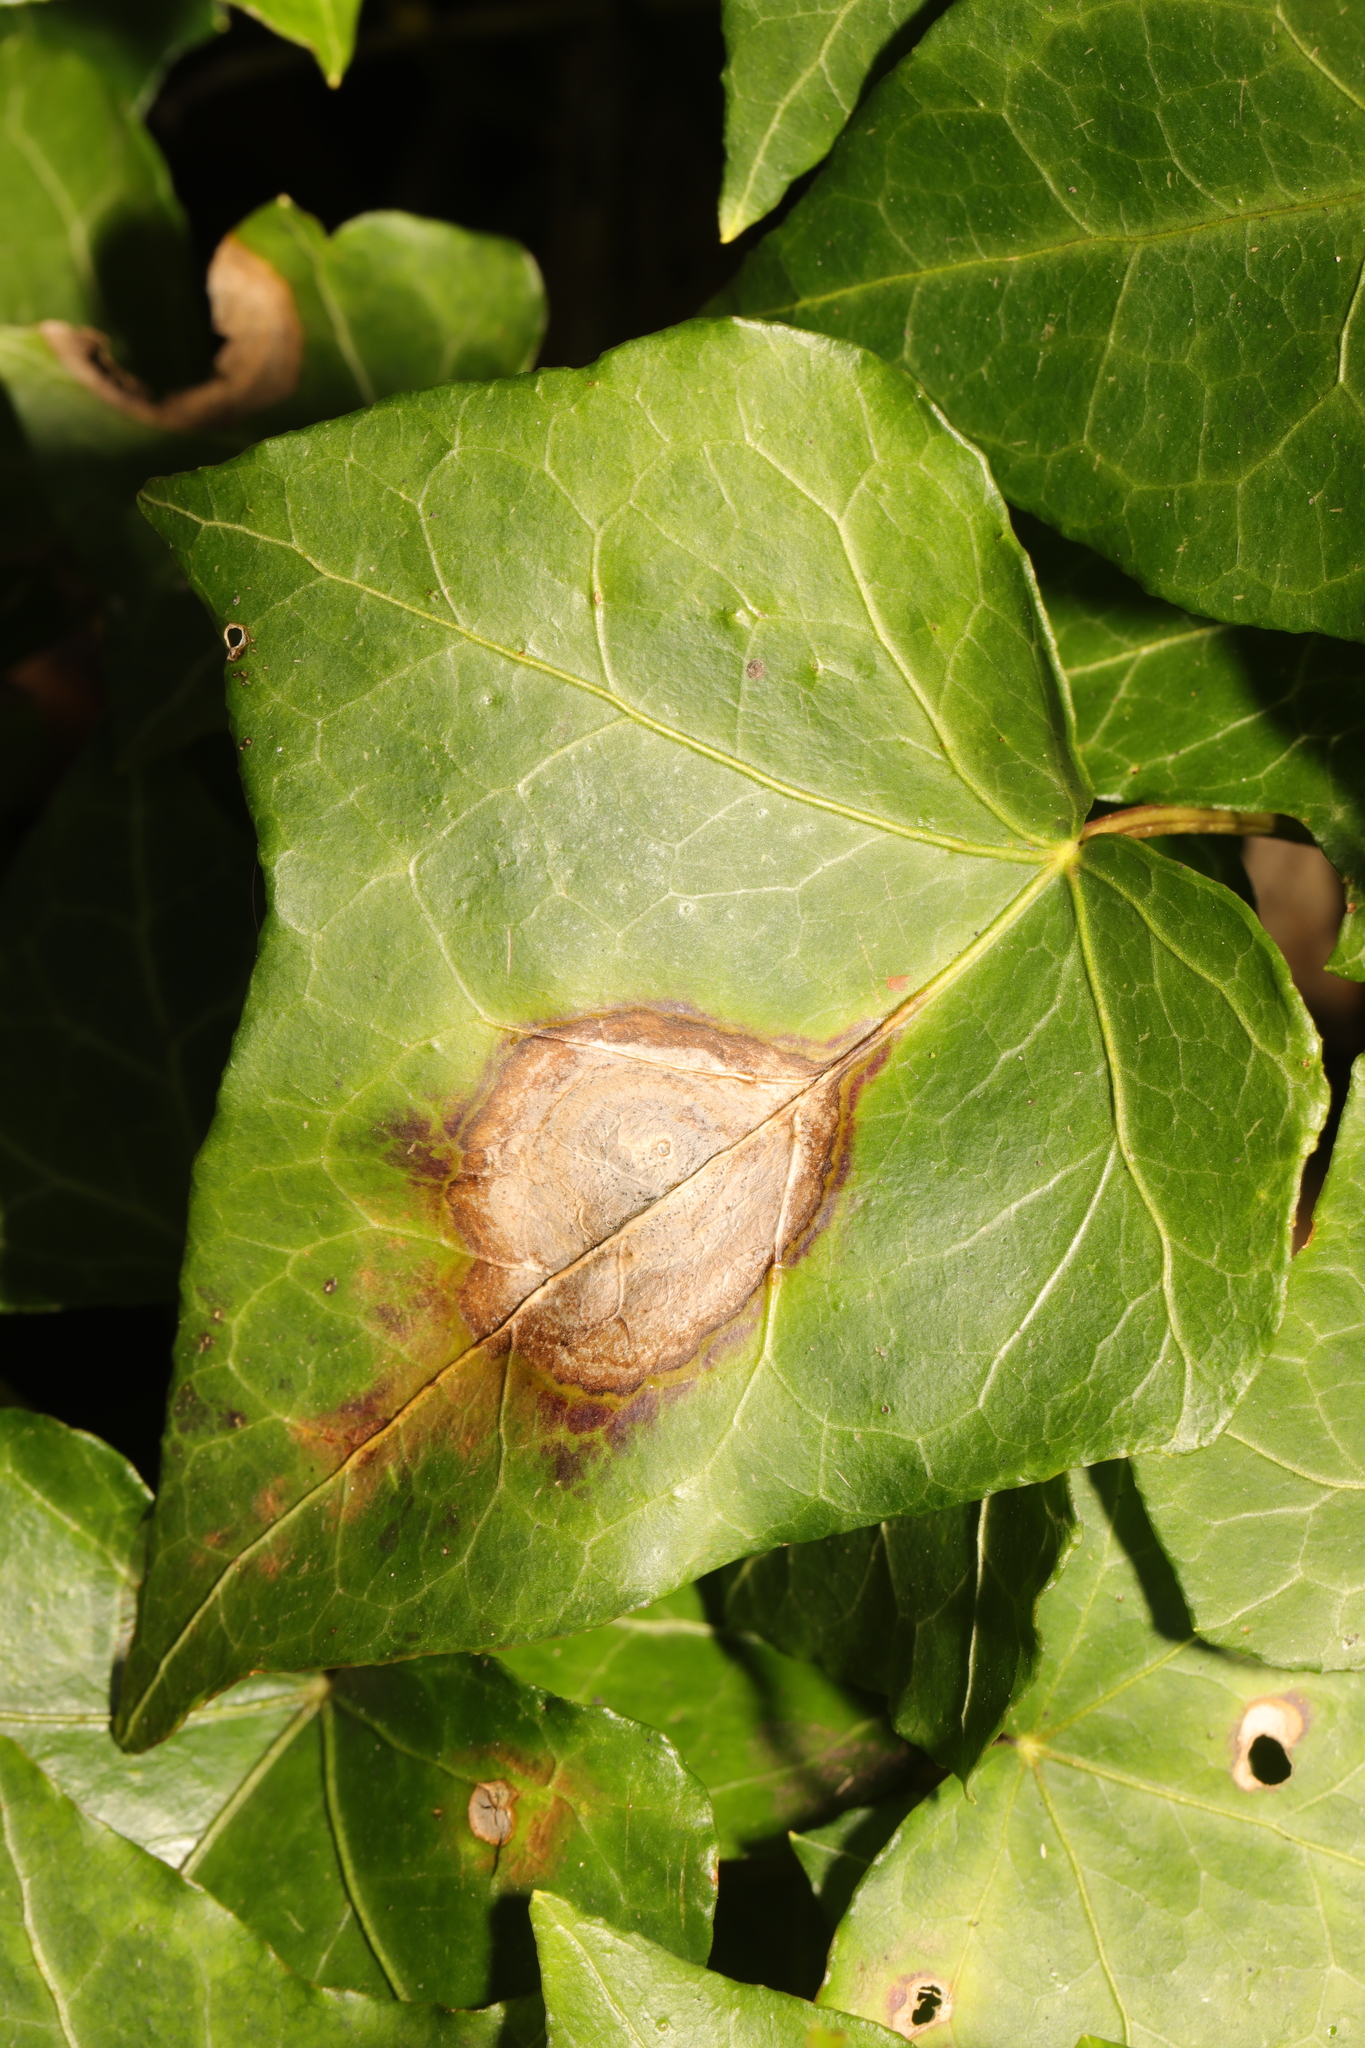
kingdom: Fungi
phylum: Ascomycota
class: Dothideomycetes
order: Pleosporales
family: Didymellaceae
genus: Boeremia
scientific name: Boeremia hedericola
